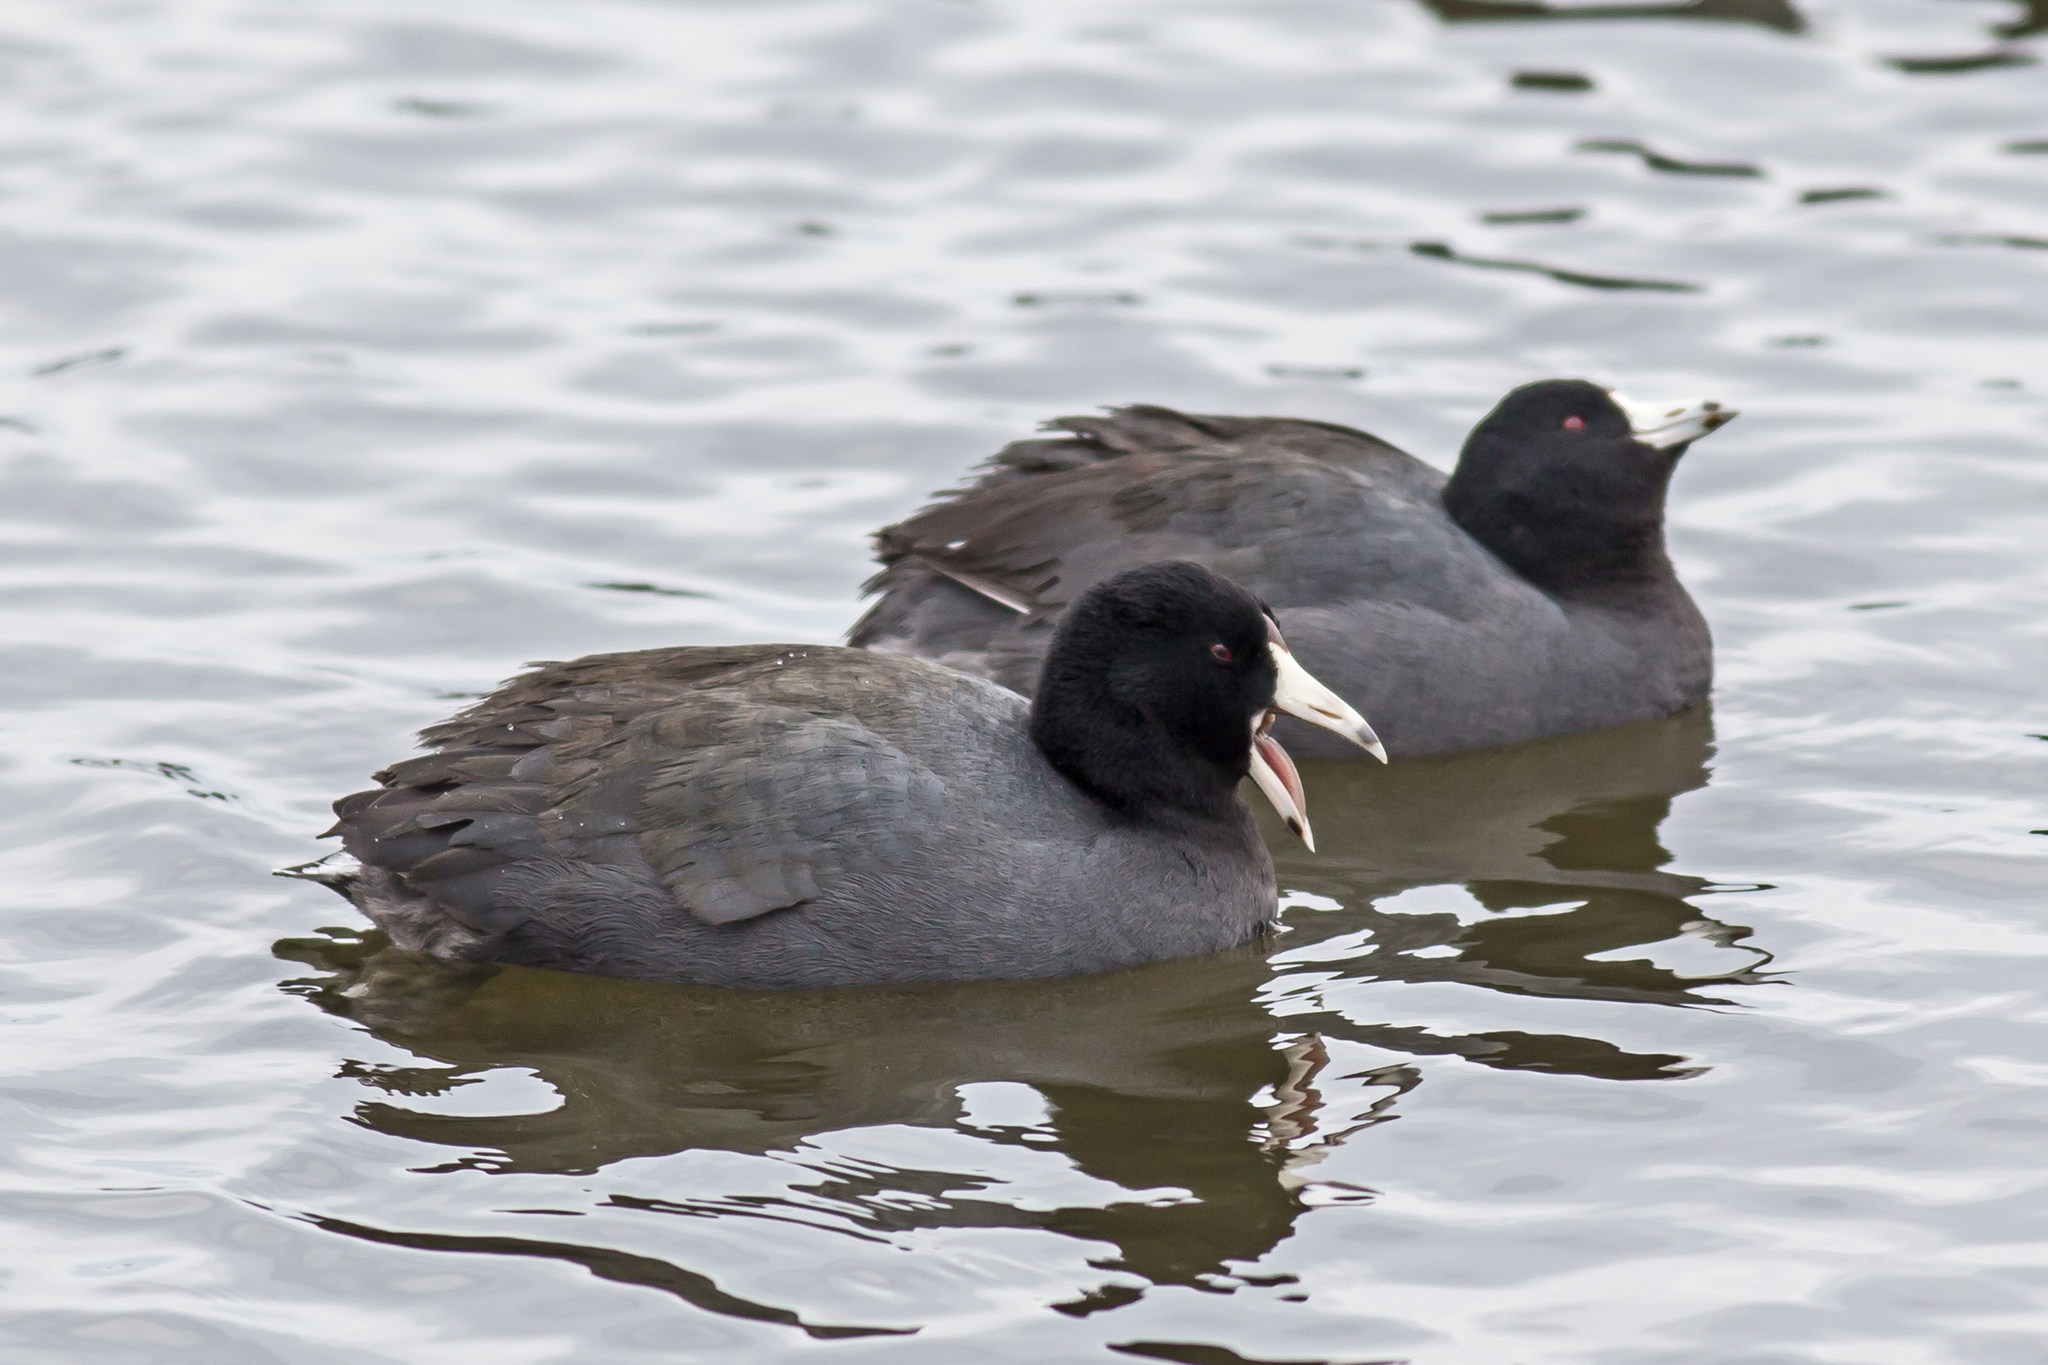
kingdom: Animalia
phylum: Chordata
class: Aves
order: Gruiformes
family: Rallidae
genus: Fulica
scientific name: Fulica americana
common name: American coot
